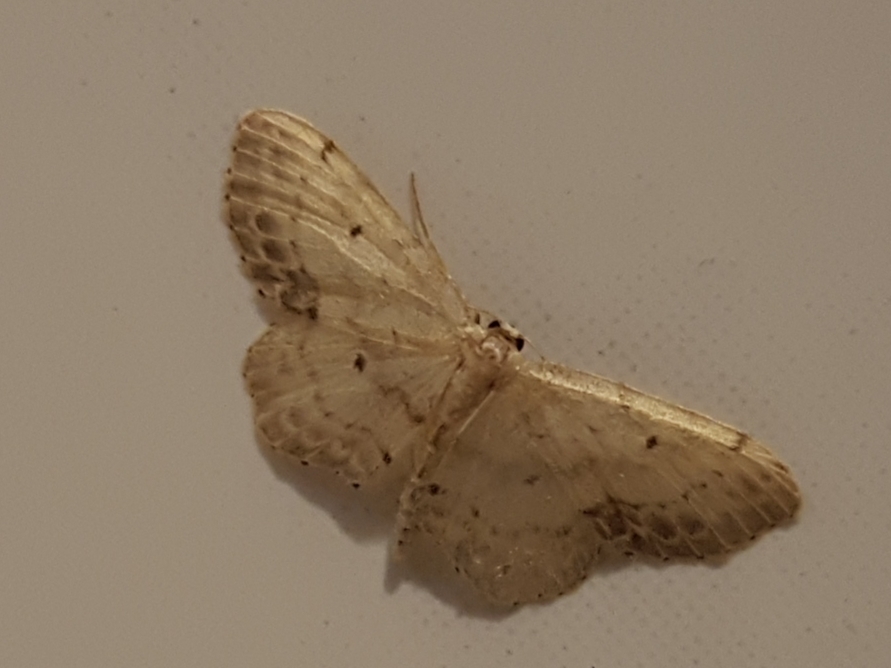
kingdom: Animalia
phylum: Arthropoda
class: Insecta
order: Lepidoptera
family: Geometridae
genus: Idaea
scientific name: Idaea dimidiata
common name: Single-dotted wave
